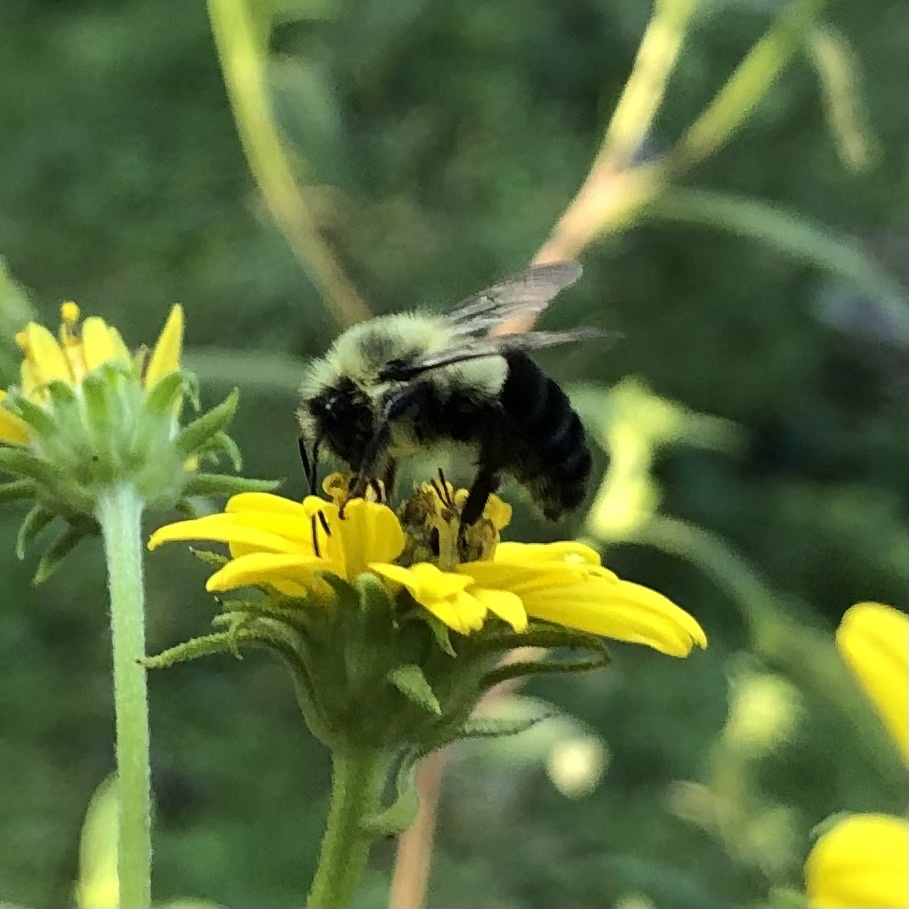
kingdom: Animalia
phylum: Arthropoda
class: Insecta
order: Hymenoptera
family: Apidae
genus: Bombus
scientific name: Bombus impatiens
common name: Common eastern bumble bee
